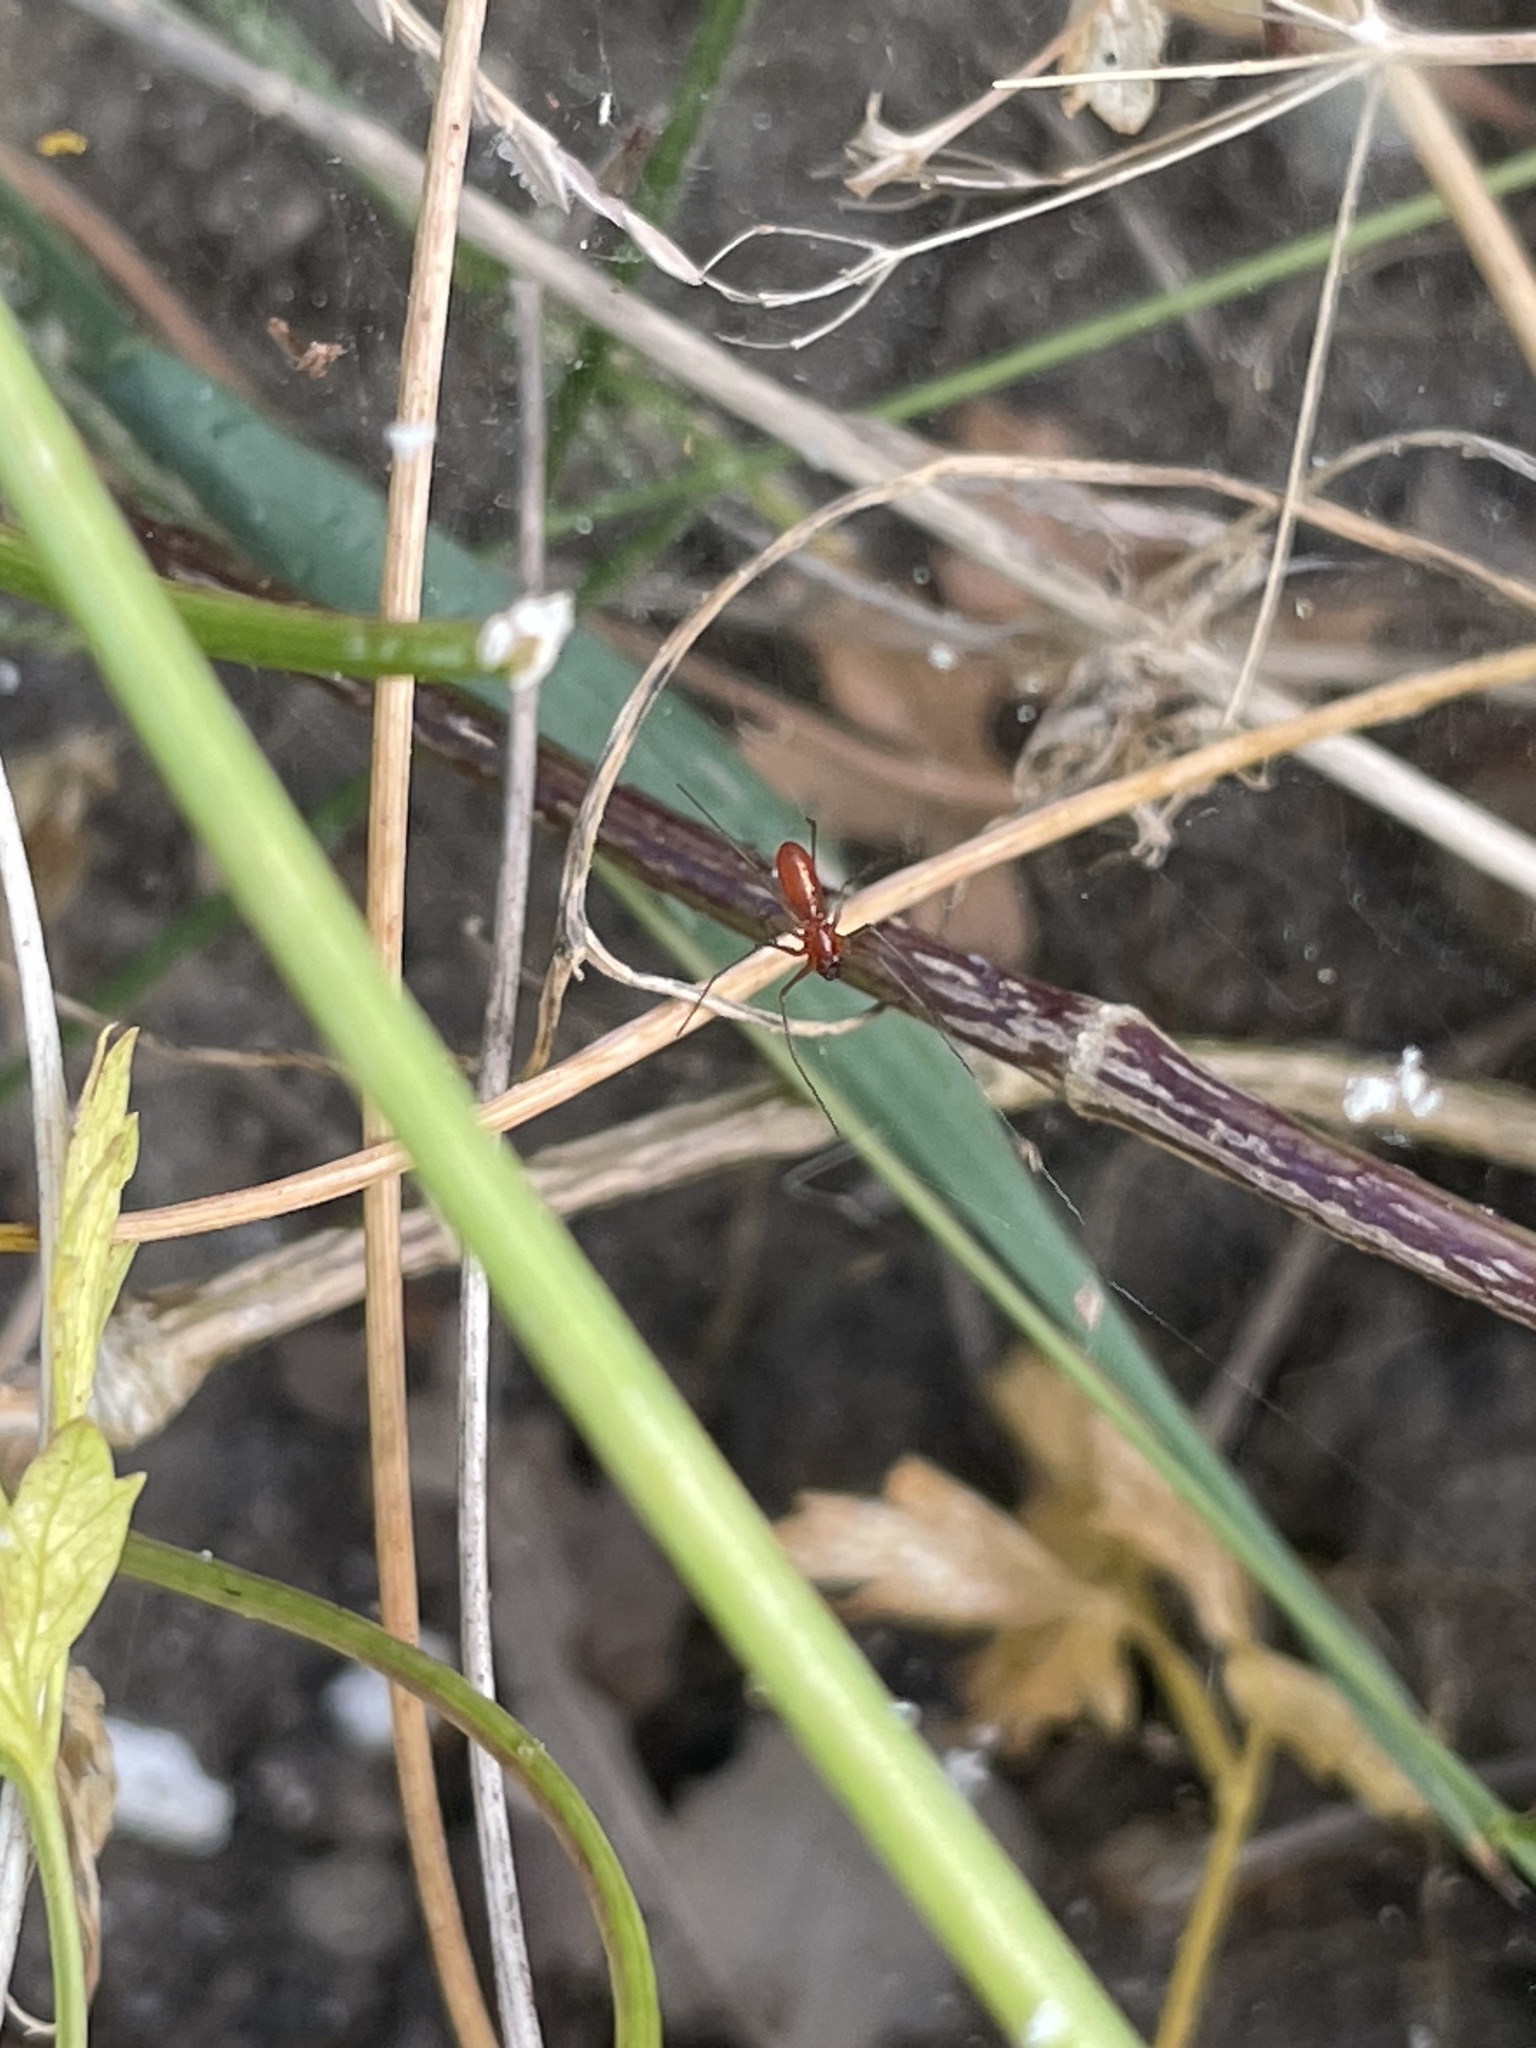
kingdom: Animalia
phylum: Arthropoda
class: Arachnida
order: Araneae
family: Linyphiidae
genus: Florinda
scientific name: Florinda coccinea
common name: Black-tailed red sheetweaver
